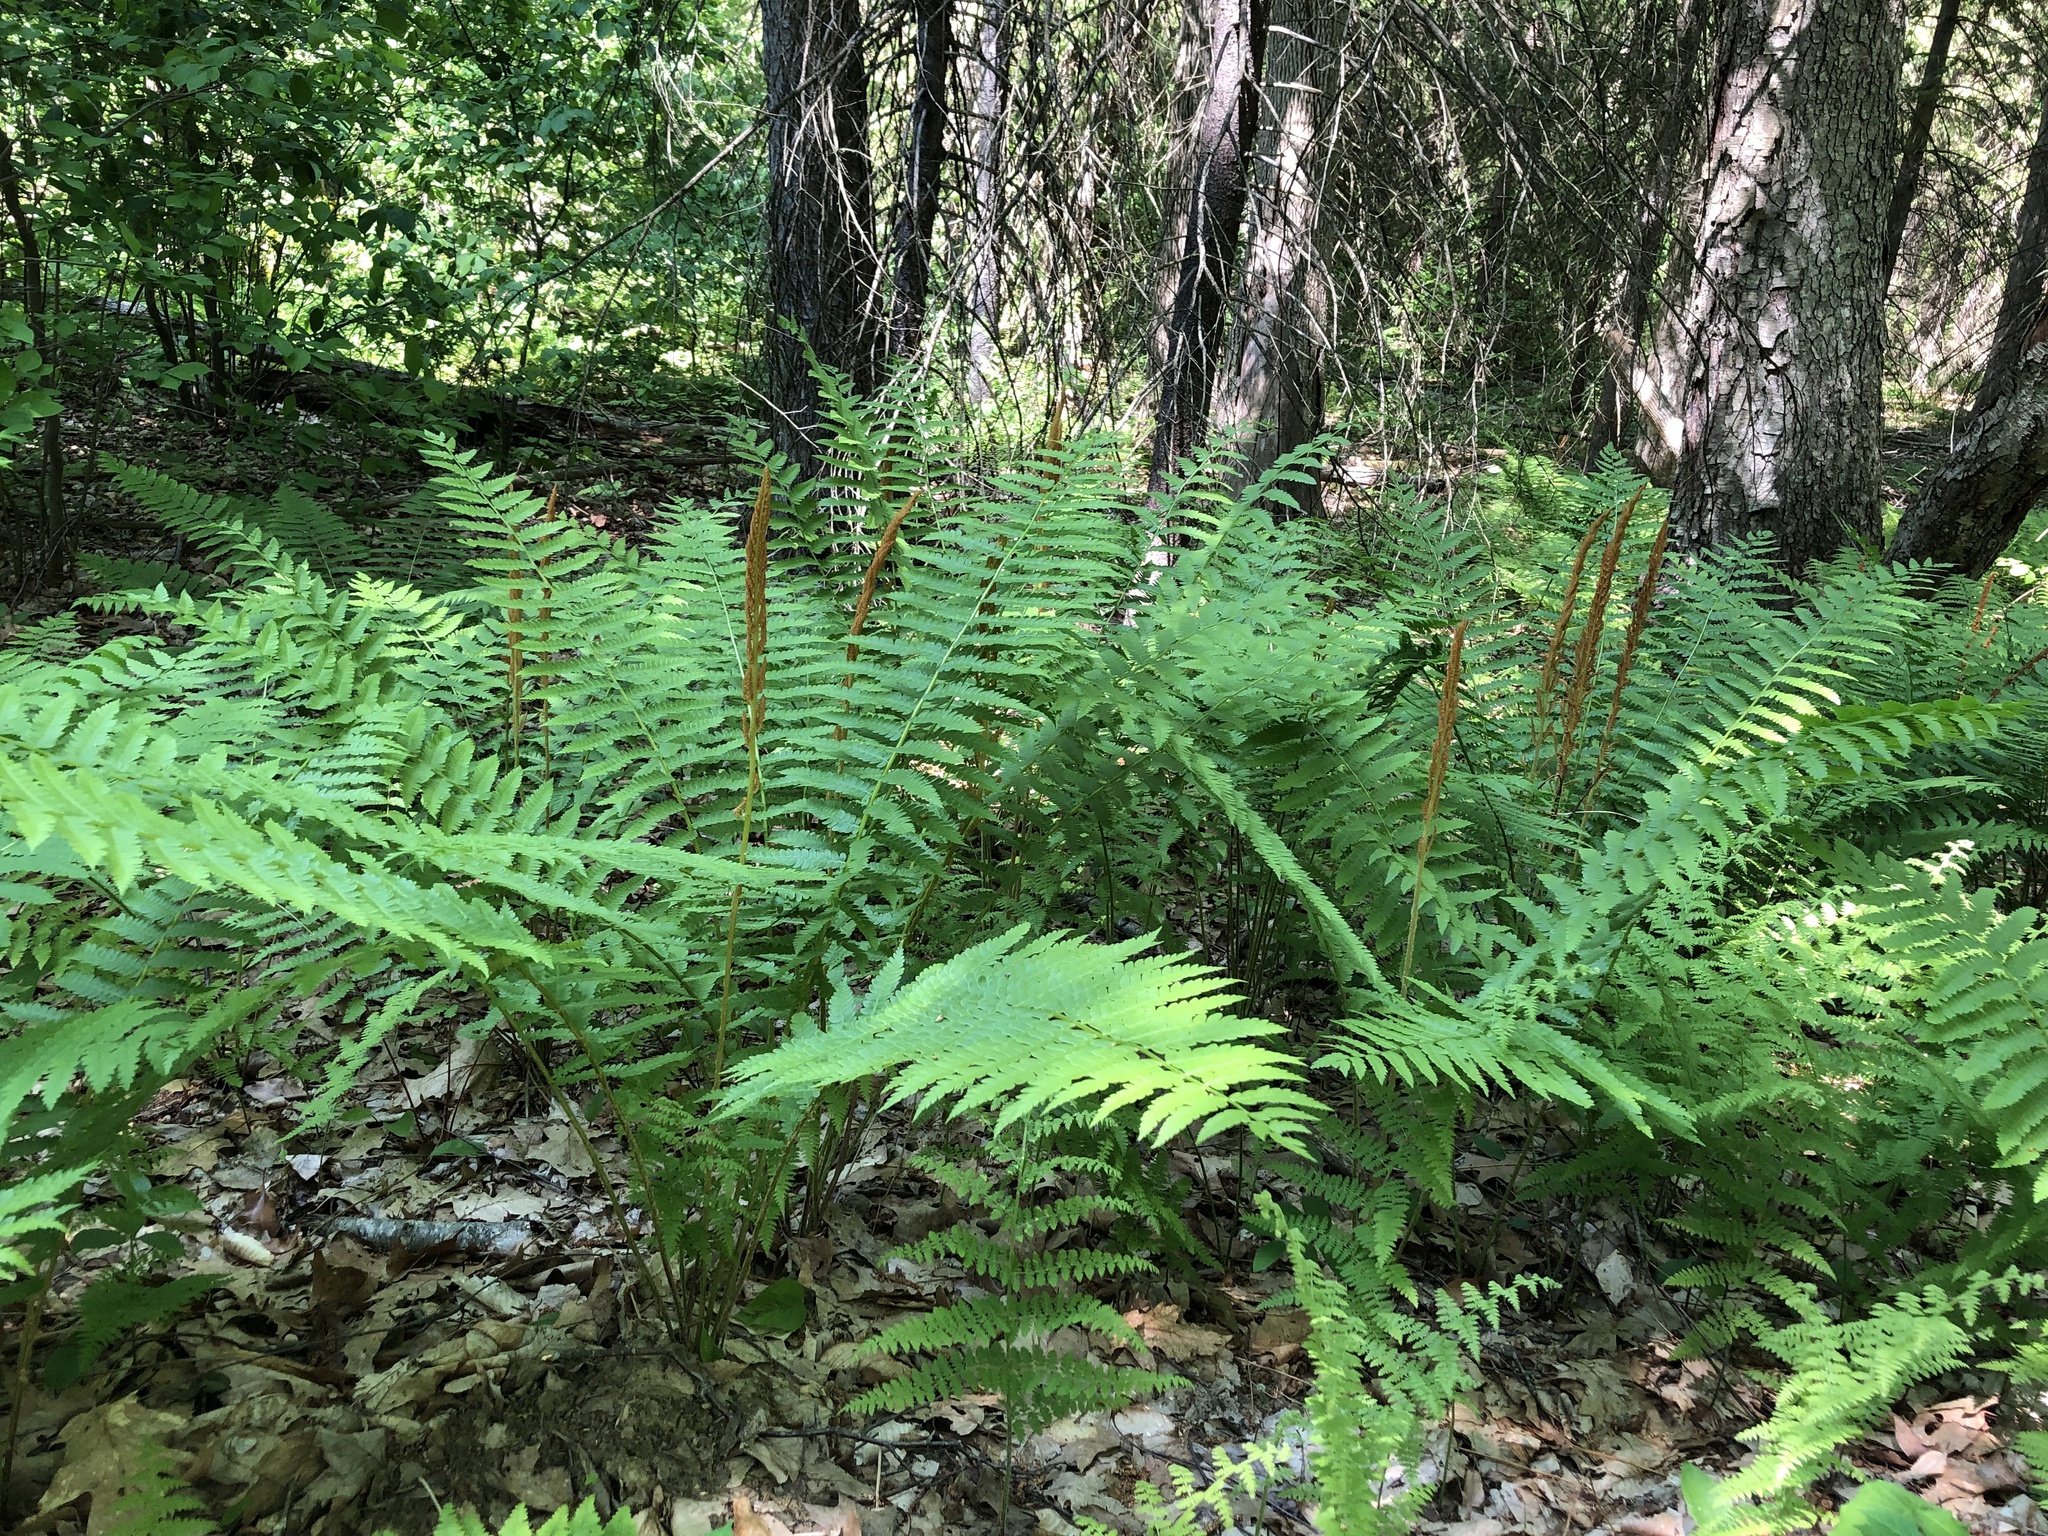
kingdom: Plantae
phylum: Tracheophyta
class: Polypodiopsida
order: Osmundales
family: Osmundaceae
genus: Osmundastrum
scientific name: Osmundastrum cinnamomeum
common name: Cinnamon fern
